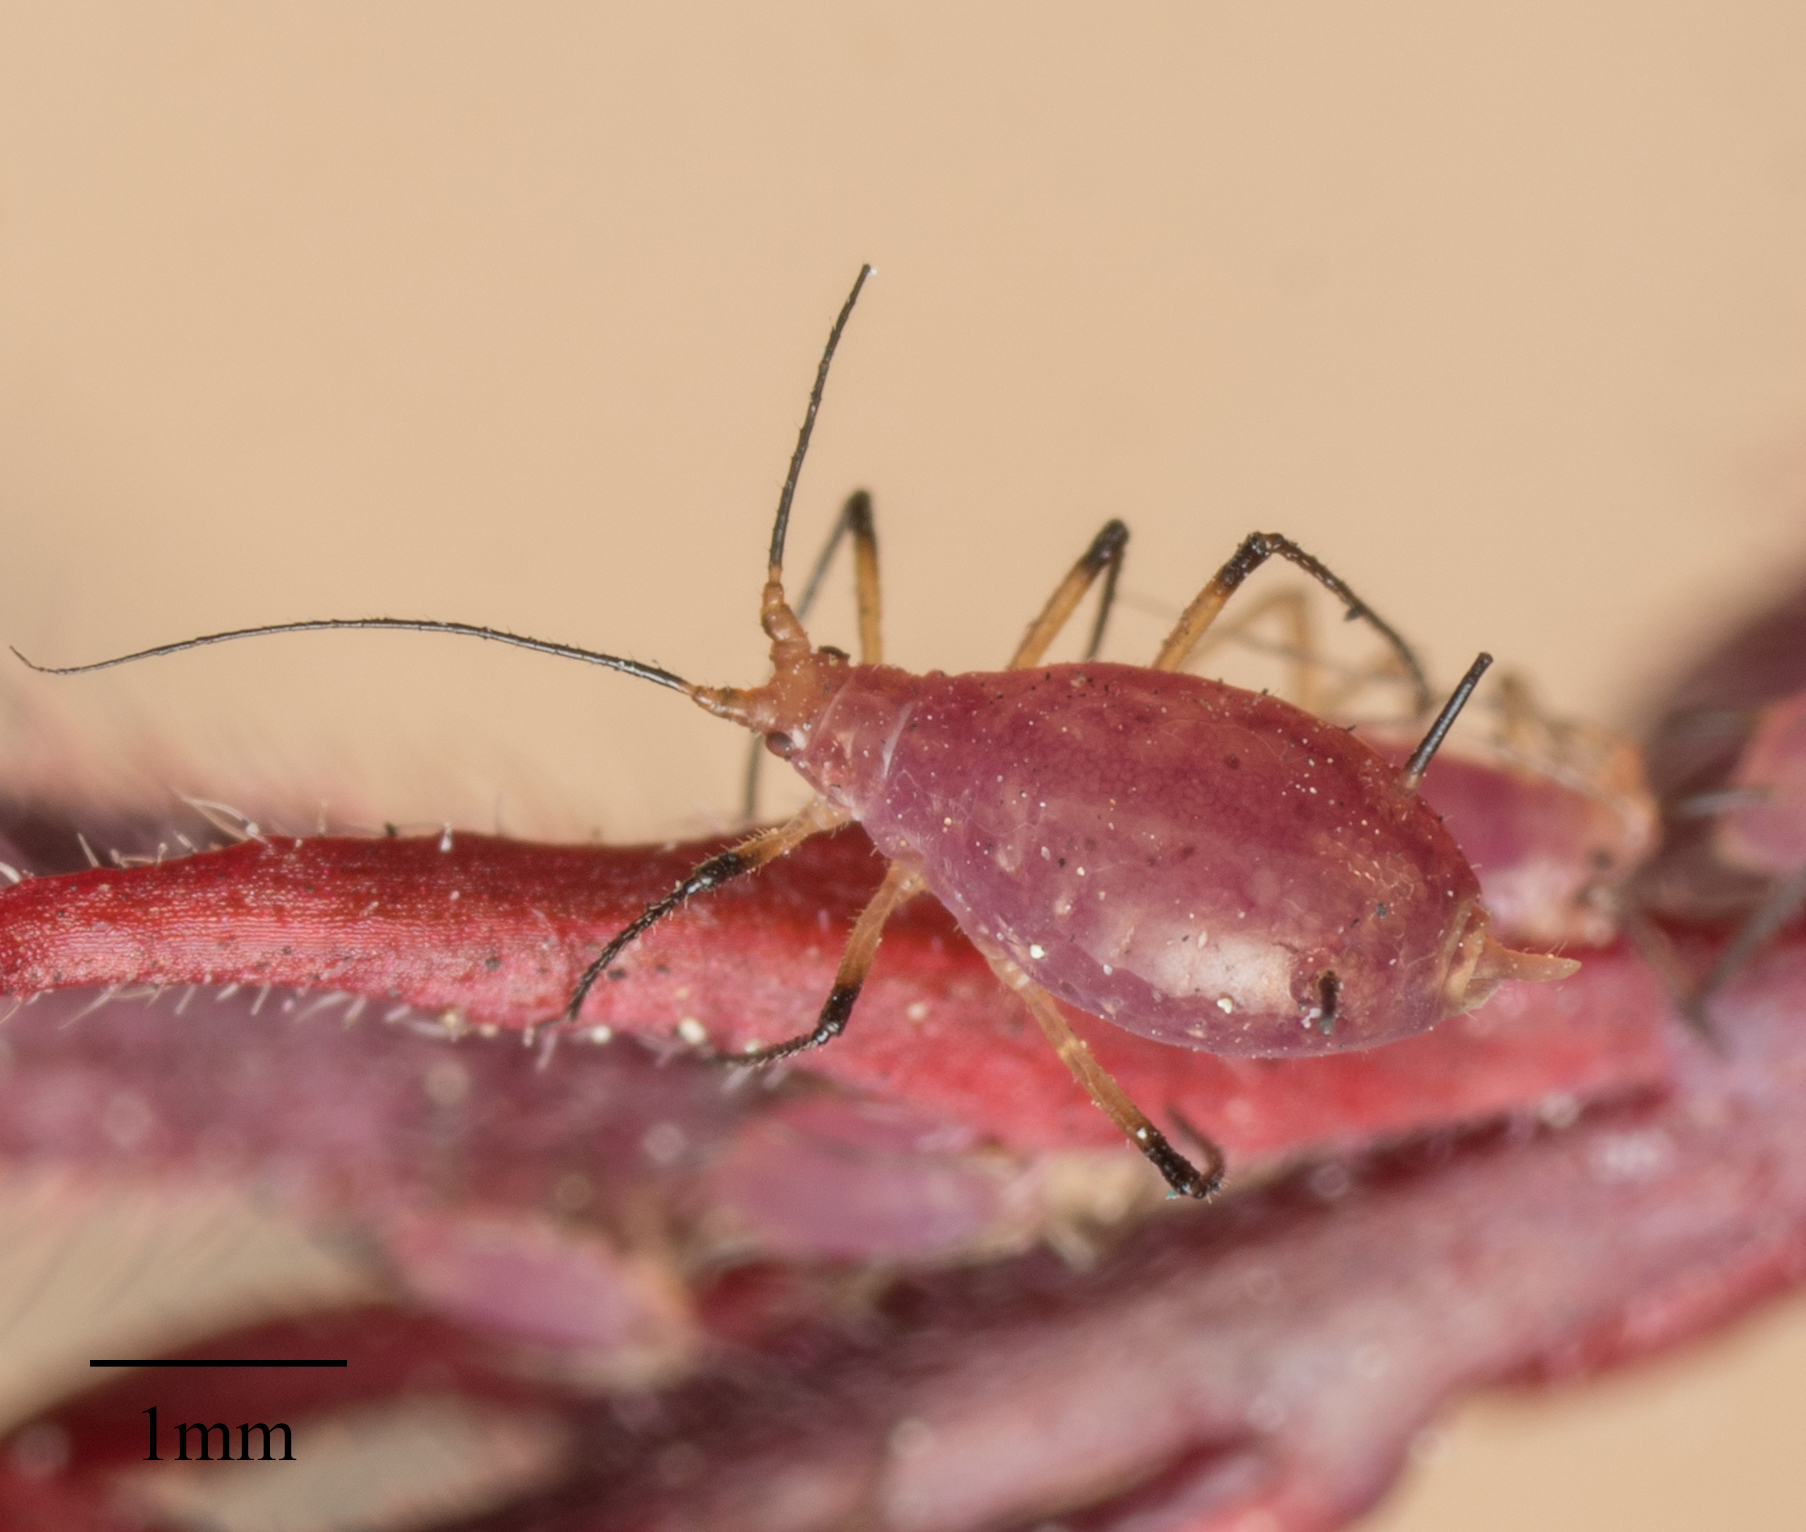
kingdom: Animalia
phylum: Arthropoda
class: Insecta
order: Hemiptera
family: Aphididae
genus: Macrosiphum
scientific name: Macrosiphum gaurae
